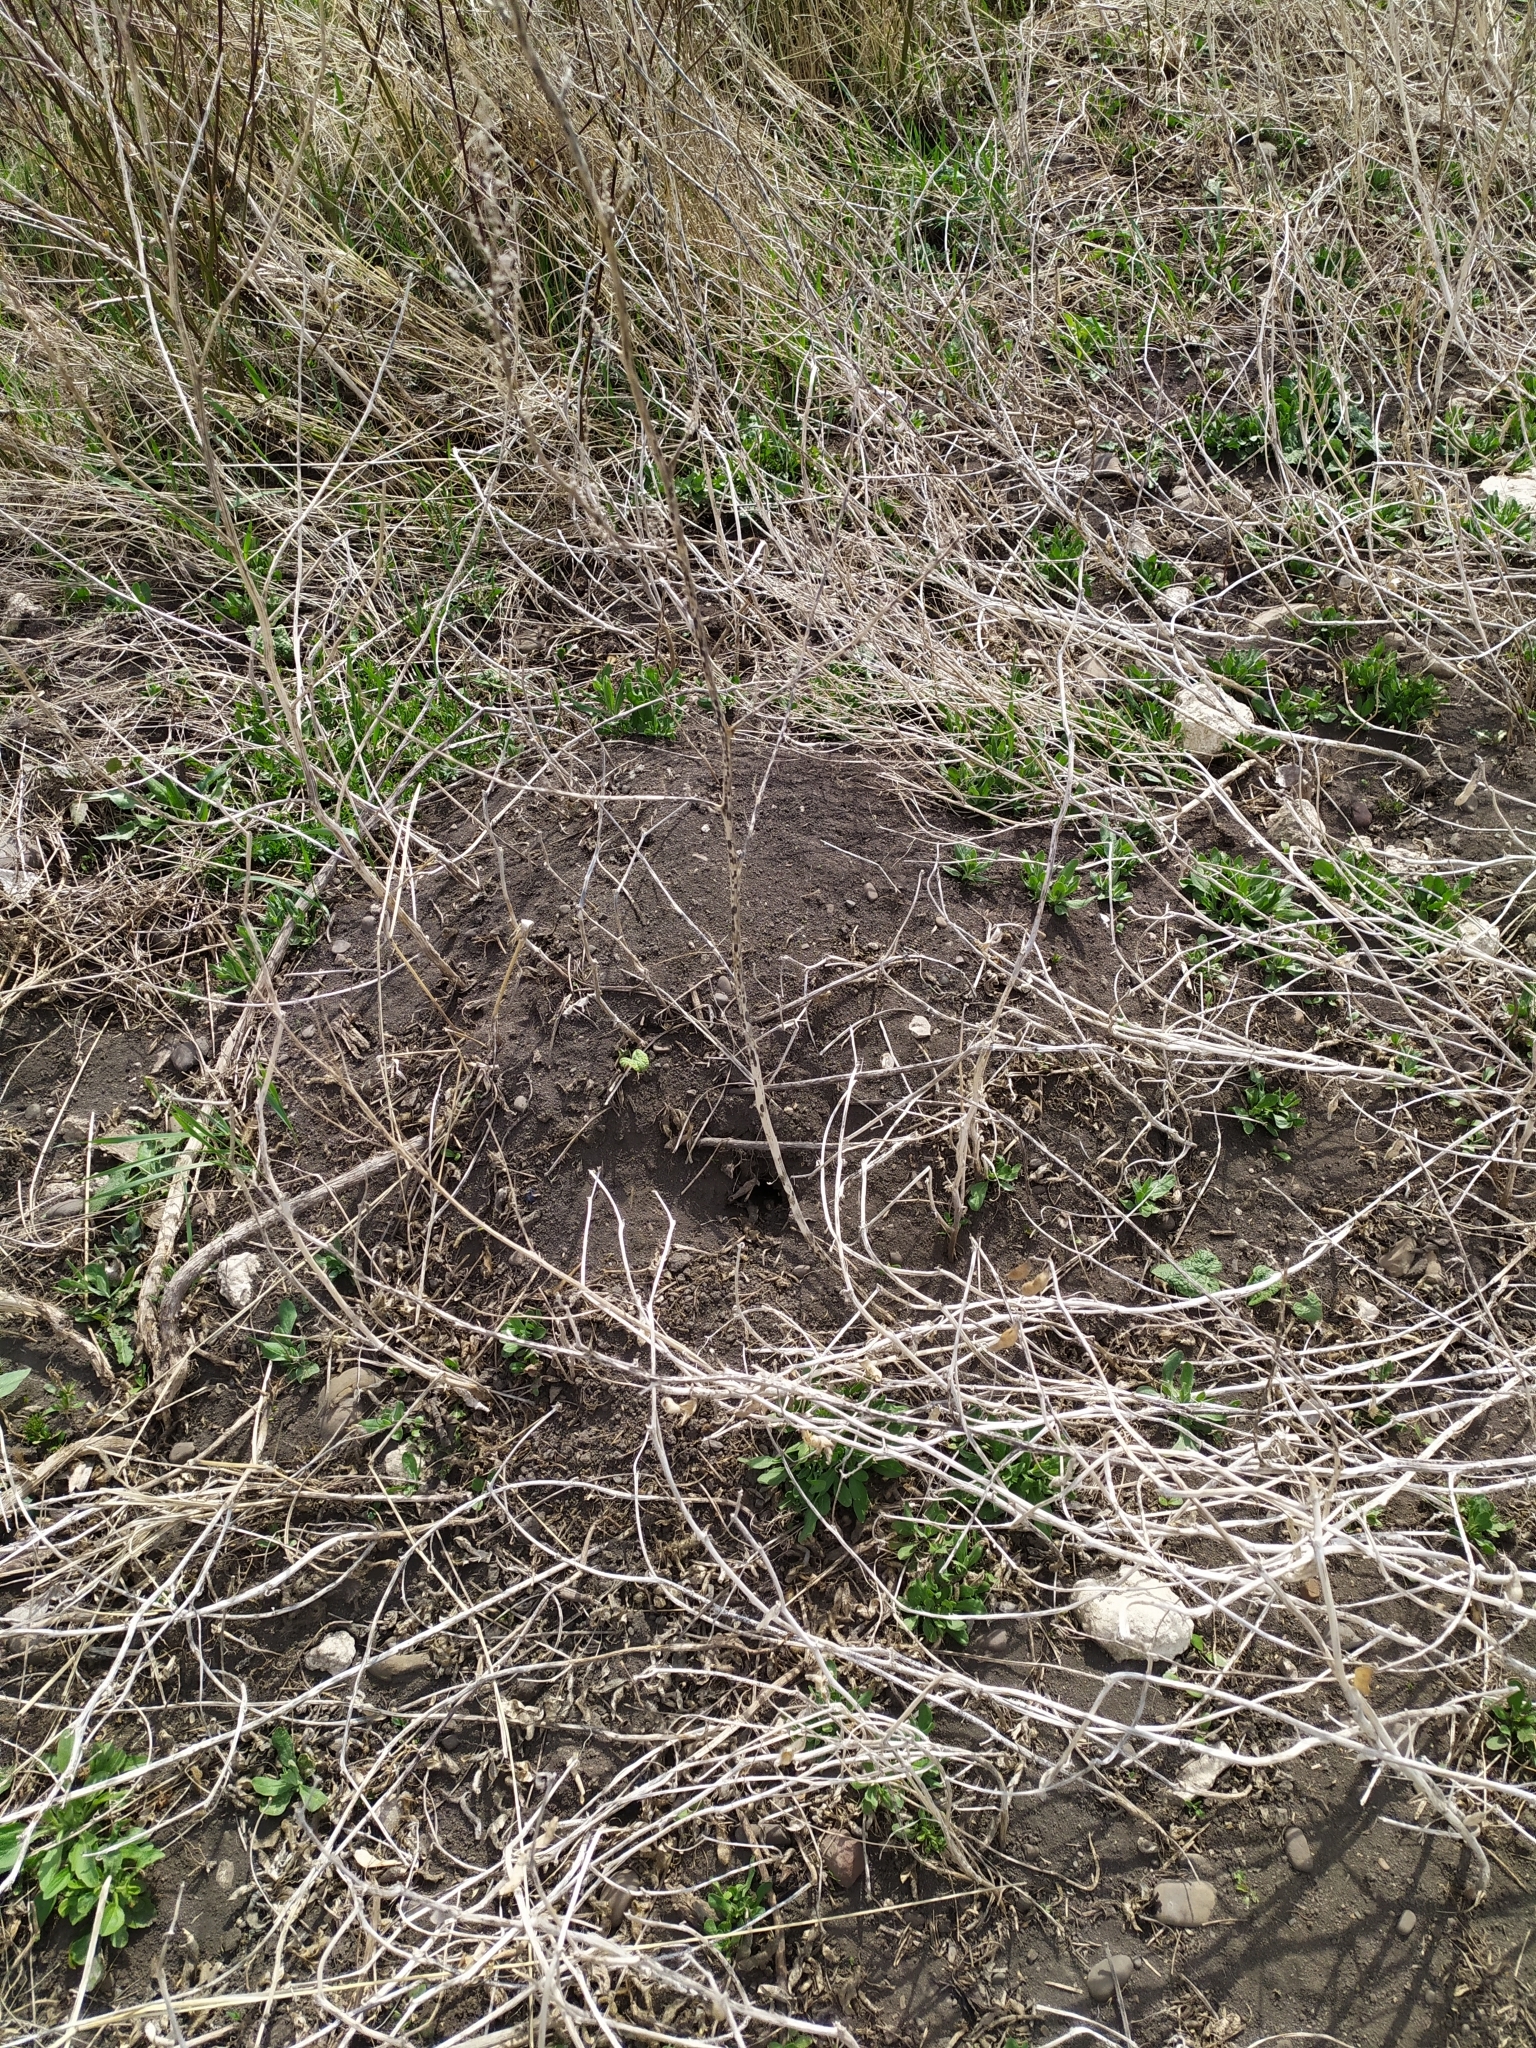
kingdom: Animalia
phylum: Chordata
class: Mammalia
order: Rodentia
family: Muridae
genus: Mus
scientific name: Mus spicilegus
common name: Mound-building mouse
